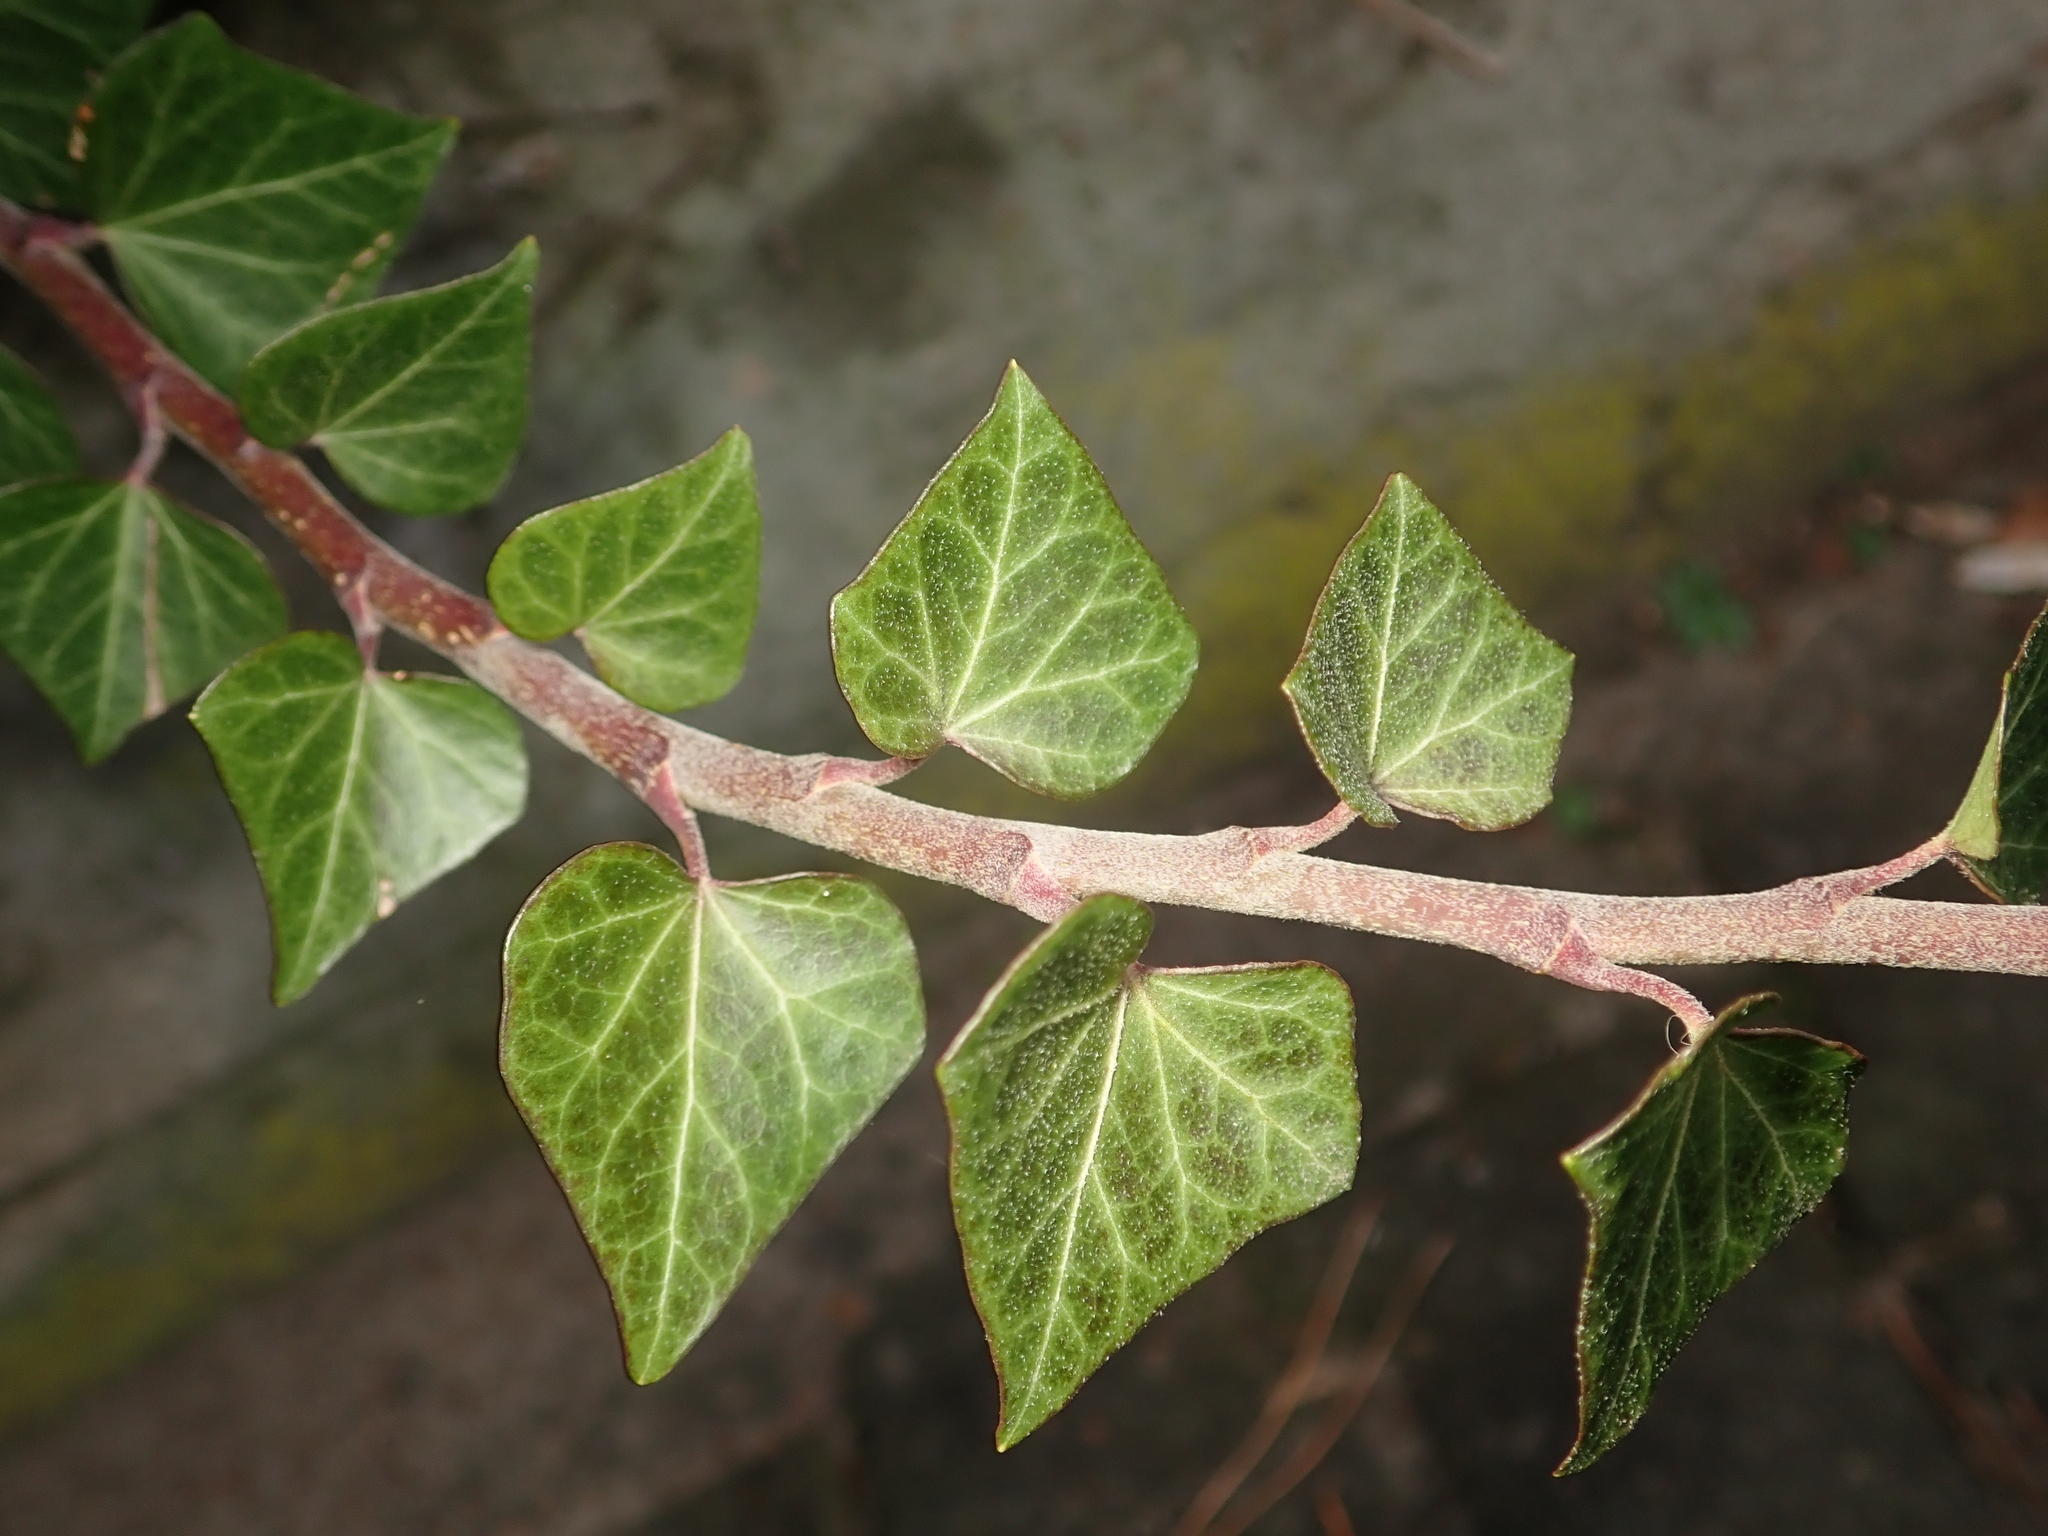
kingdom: Plantae
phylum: Tracheophyta
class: Magnoliopsida
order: Apiales
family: Araliaceae
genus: Hedera
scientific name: Hedera helix
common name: Ivy
